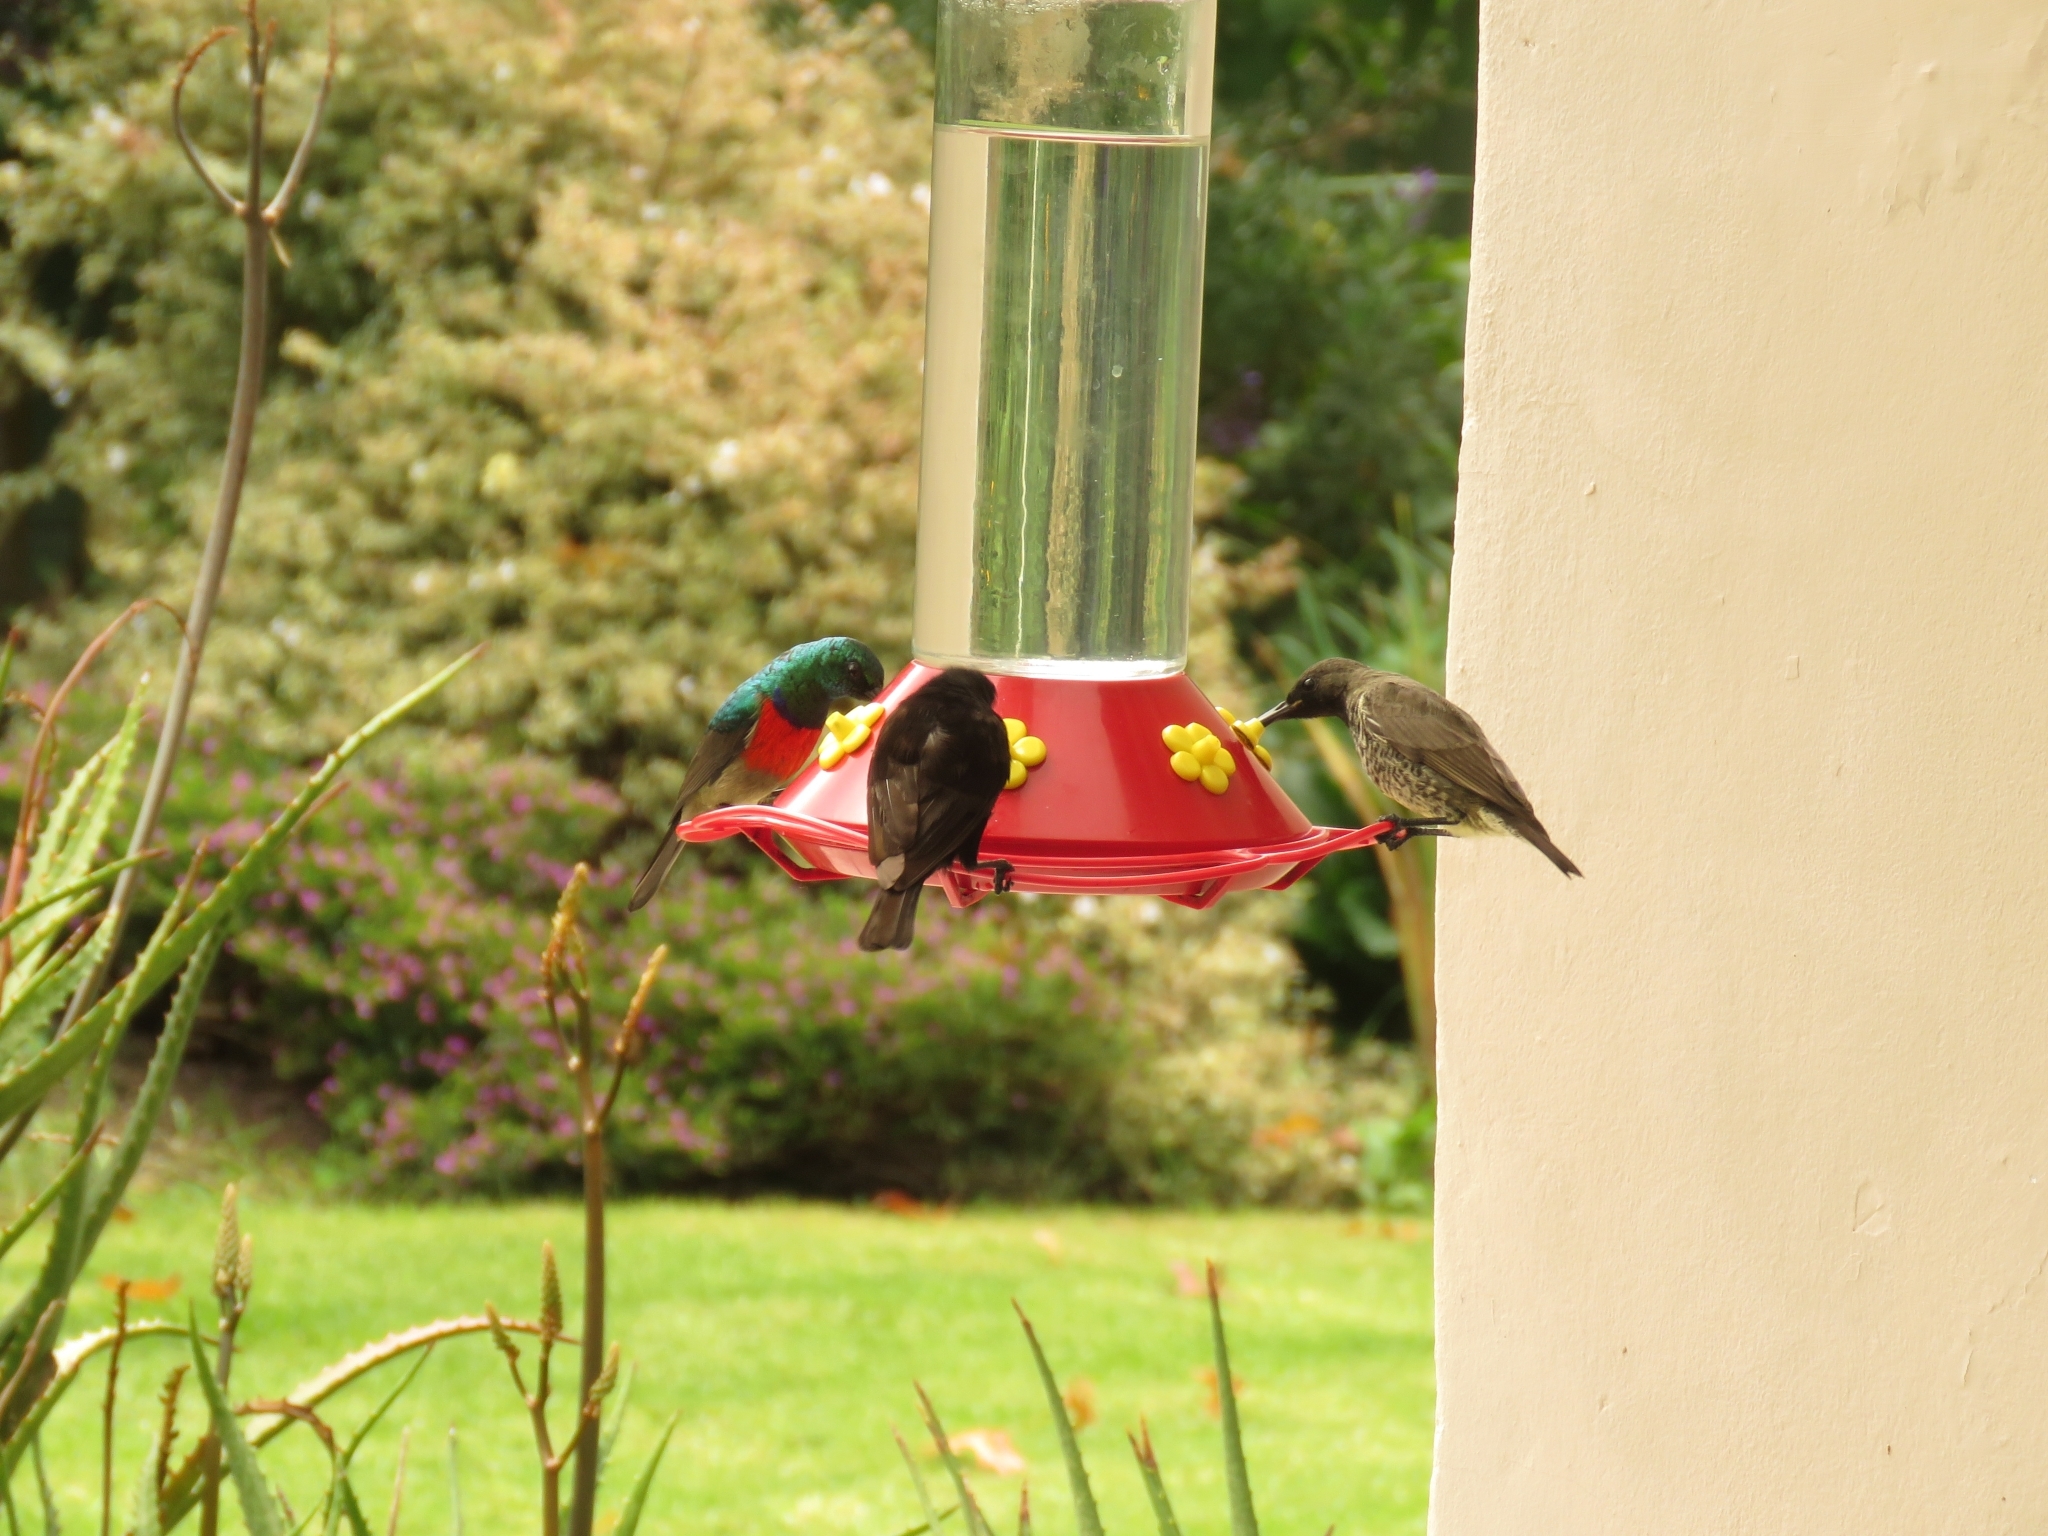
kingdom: Animalia
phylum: Chordata
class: Aves
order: Passeriformes
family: Nectariniidae
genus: Chalcomitra
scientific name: Chalcomitra amethystina
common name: Amethyst sunbird
